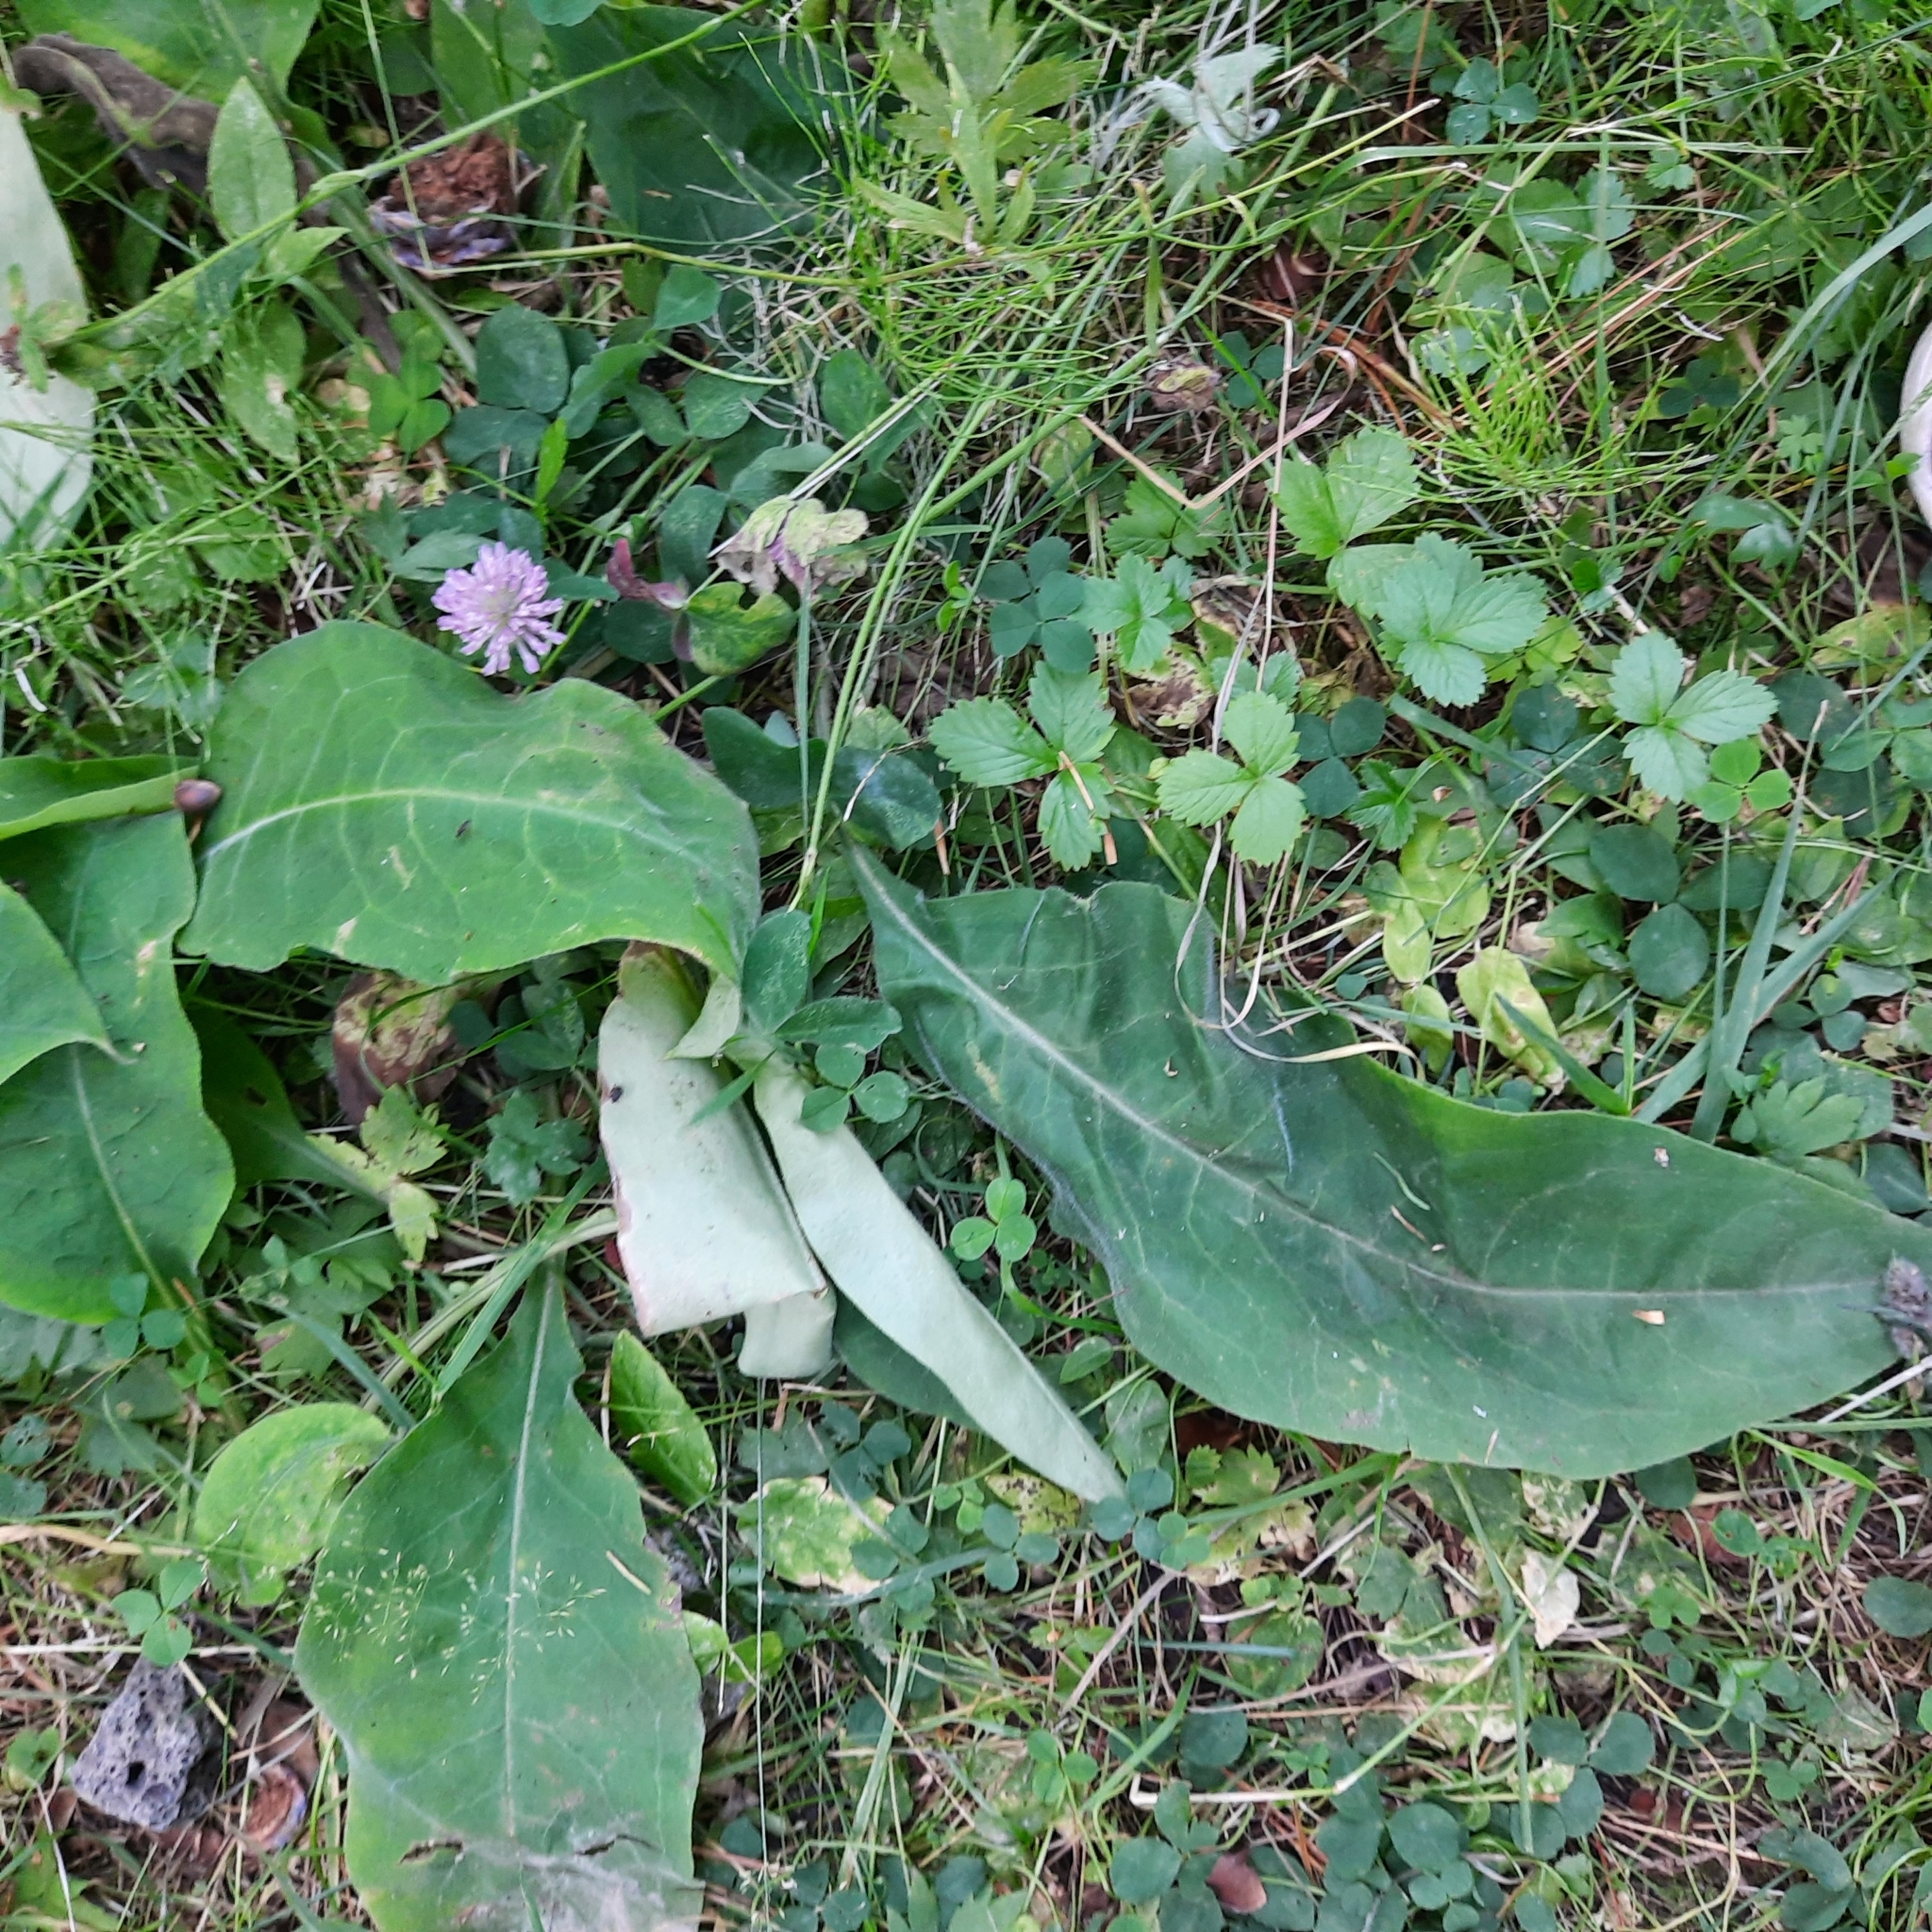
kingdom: Plantae
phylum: Tracheophyta
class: Magnoliopsida
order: Boraginales
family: Boraginaceae
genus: Pulmonaria
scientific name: Pulmonaria mollis
